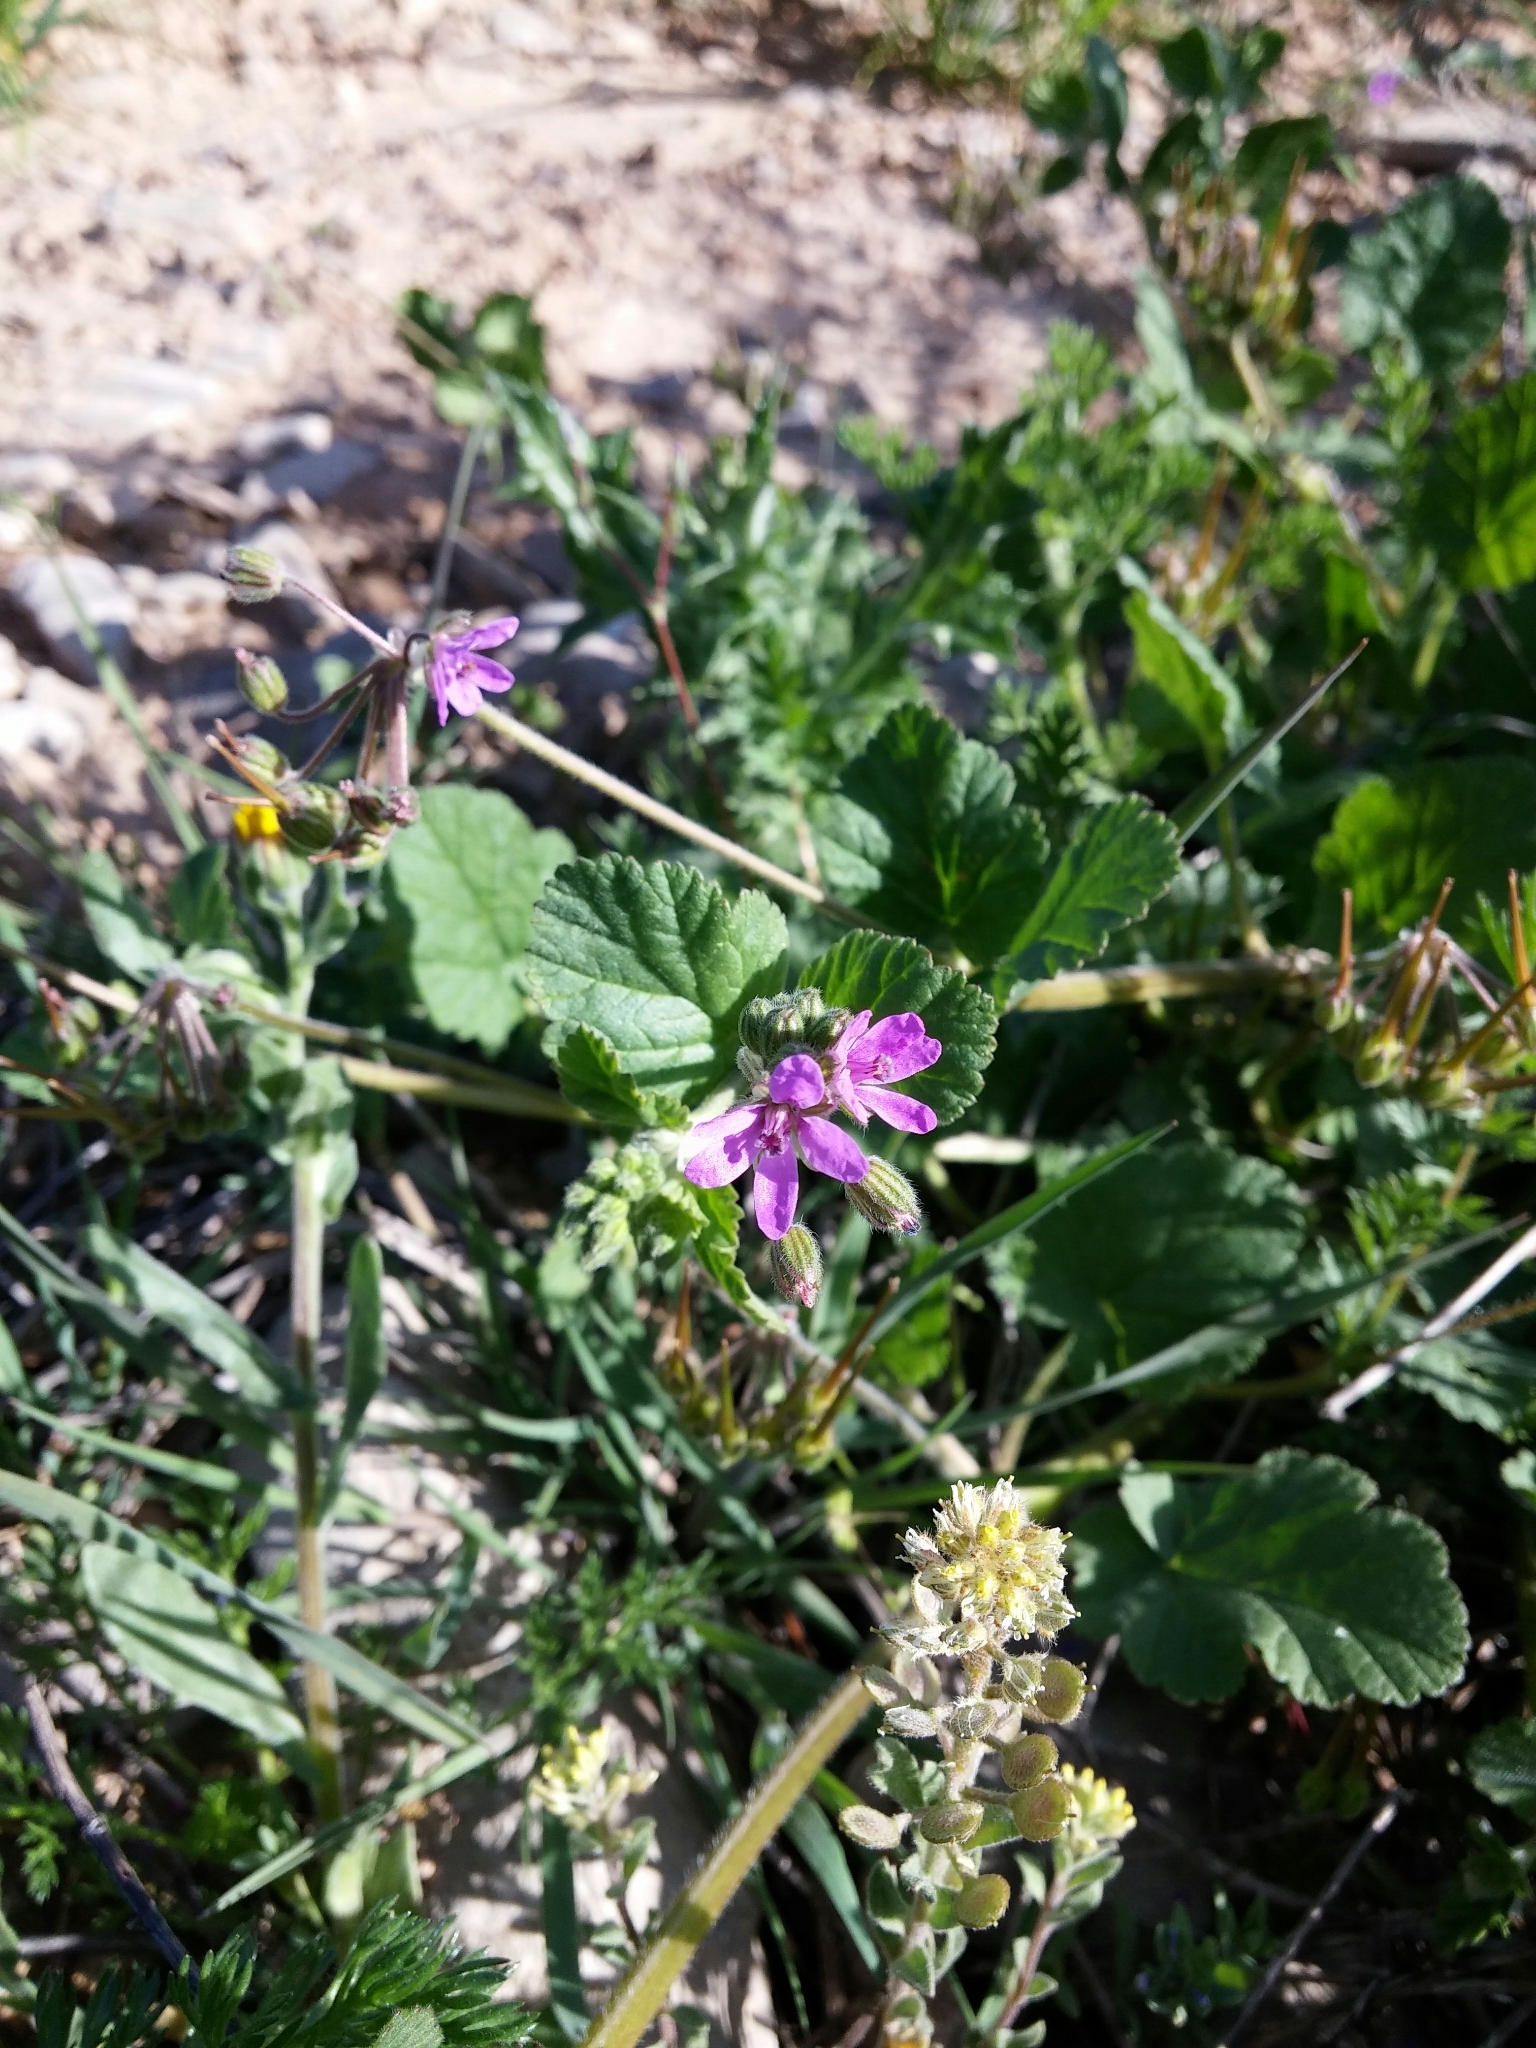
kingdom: Plantae
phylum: Tracheophyta
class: Magnoliopsida
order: Geraniales
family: Geraniaceae
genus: Erodium
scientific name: Erodium malacoides
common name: Soft stork's-bill
